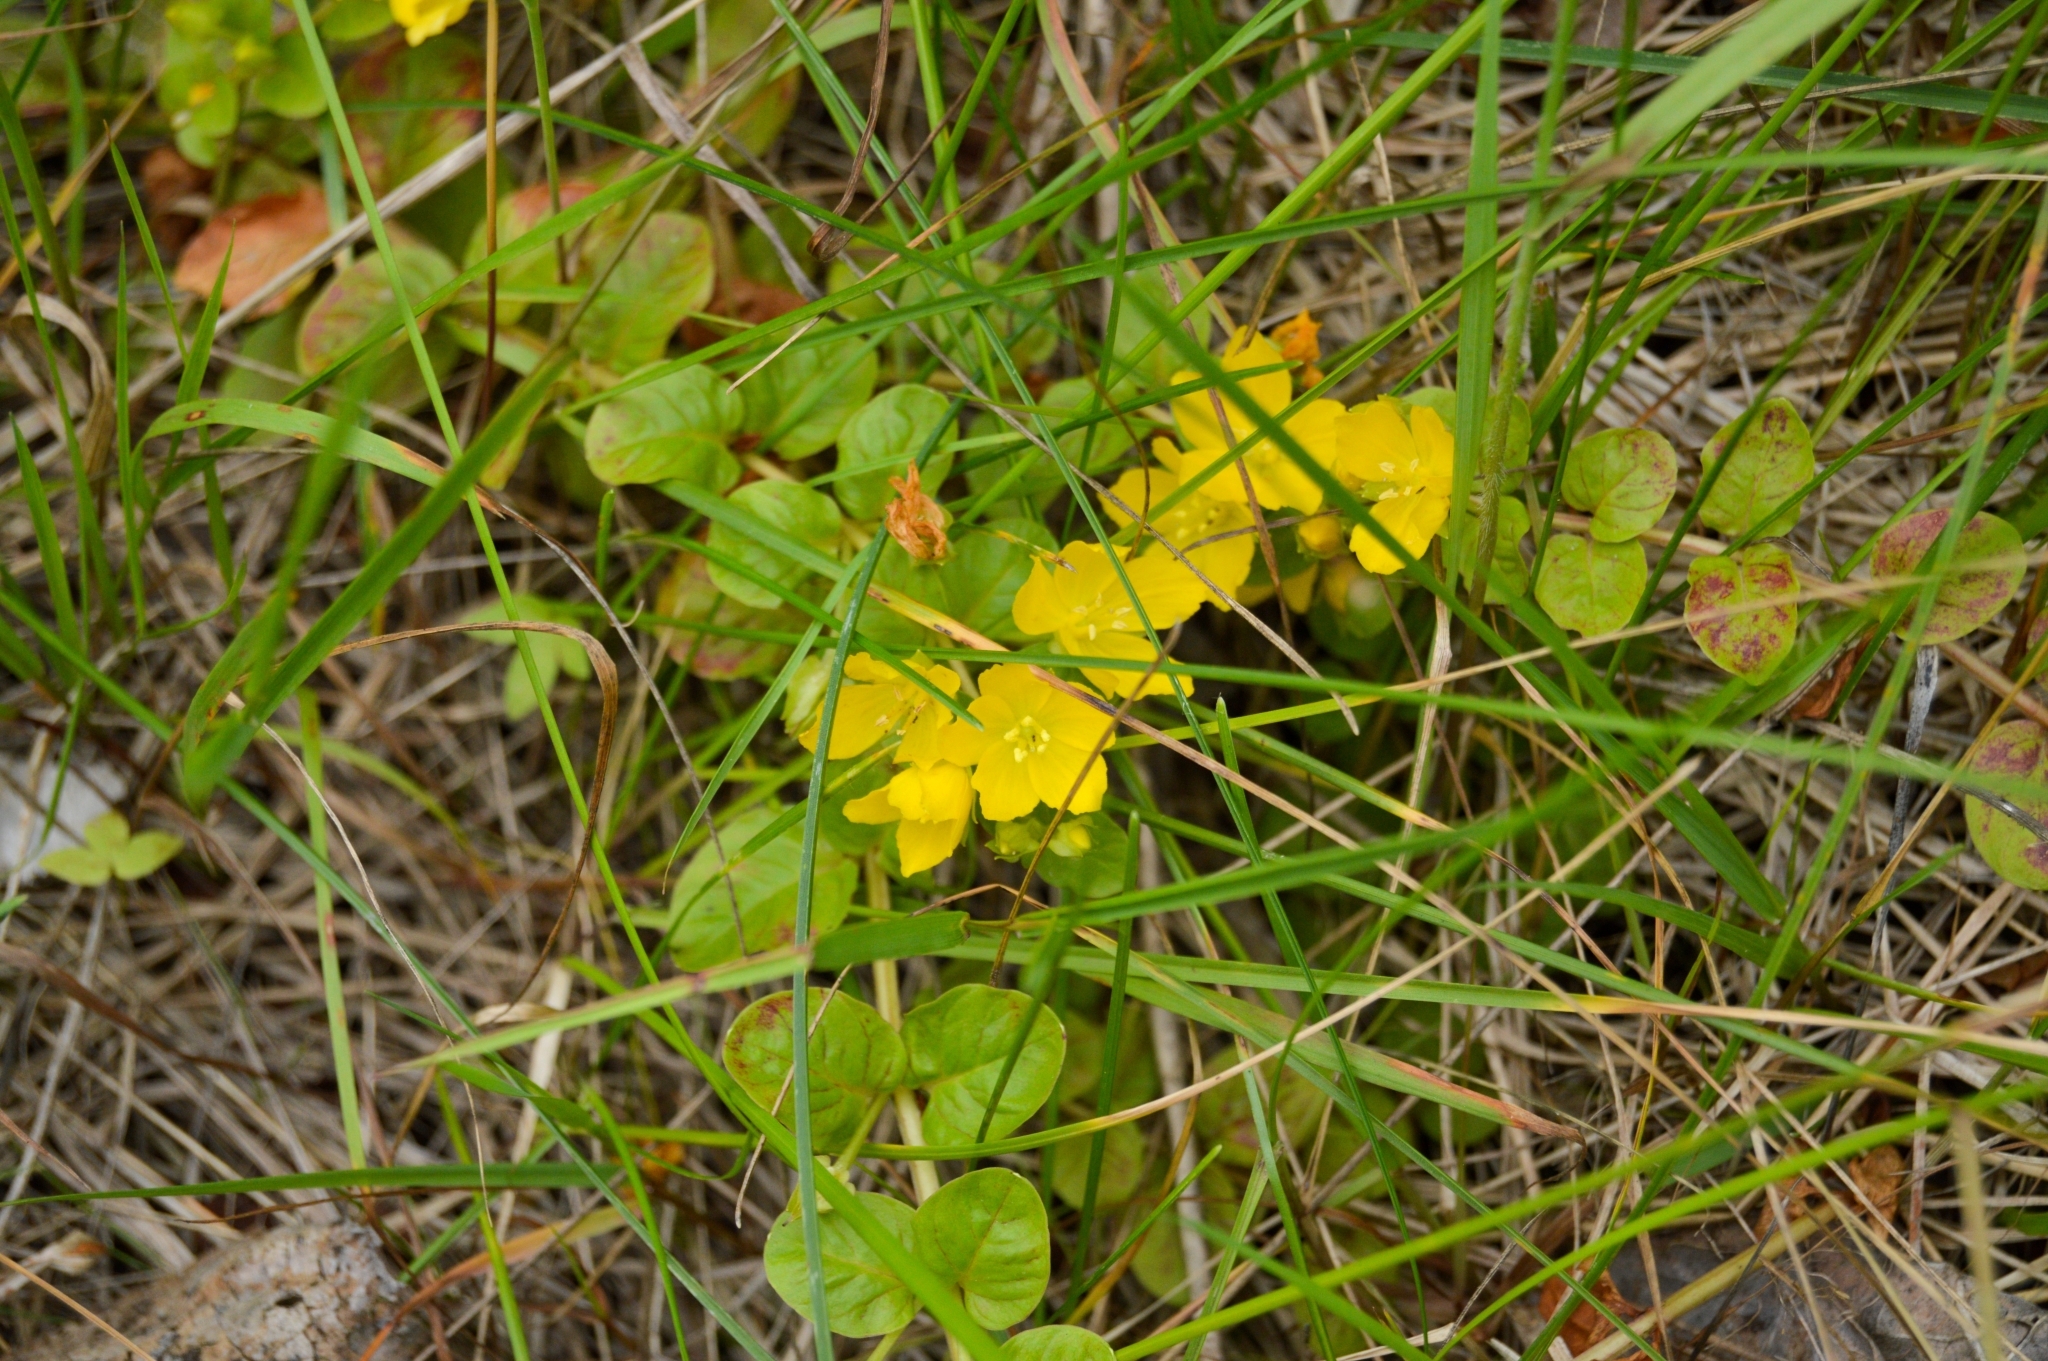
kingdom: Plantae
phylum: Tracheophyta
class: Magnoliopsida
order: Ericales
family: Primulaceae
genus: Lysimachia
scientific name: Lysimachia nummularia
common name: Moneywort
